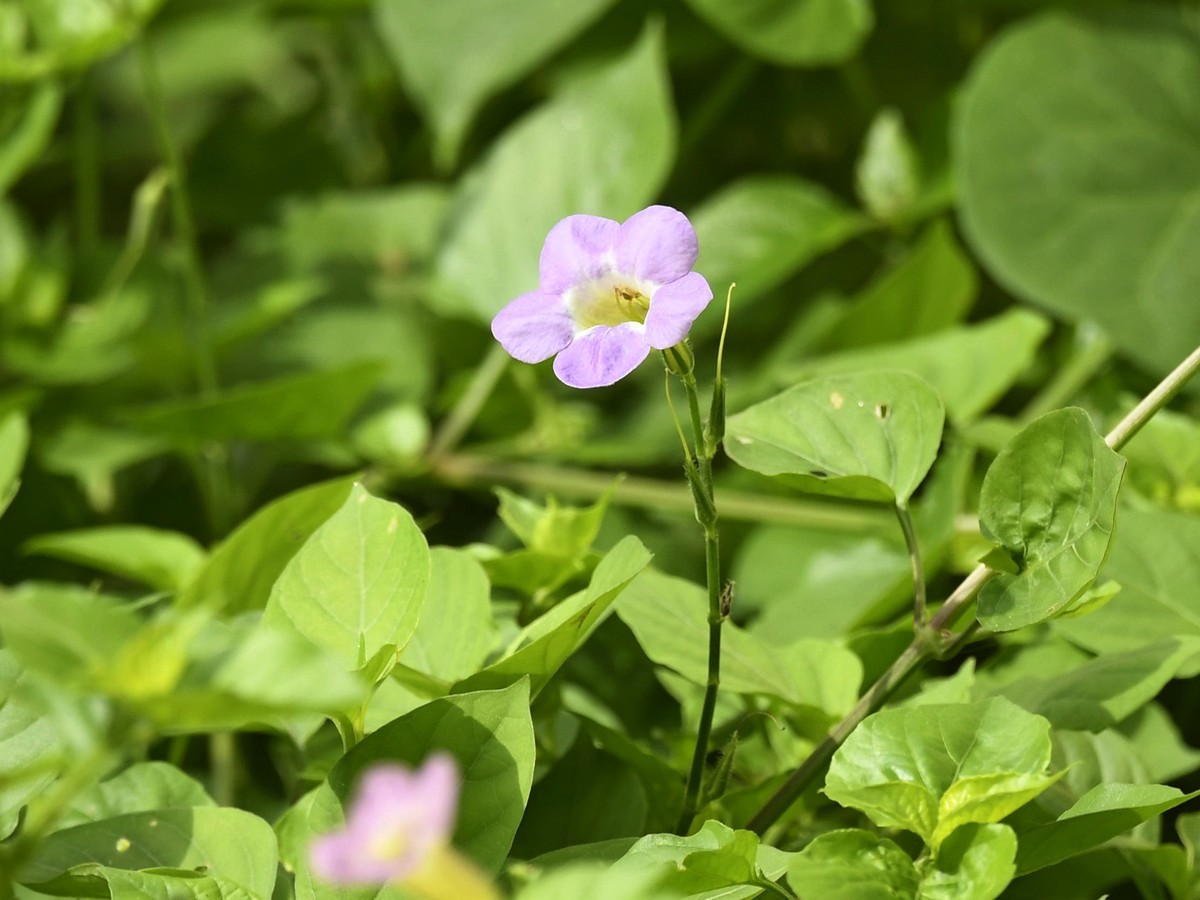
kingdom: Plantae
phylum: Tracheophyta
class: Magnoliopsida
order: Lamiales
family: Acanthaceae
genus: Asystasia
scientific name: Asystasia gangetica
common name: Chinese violet
